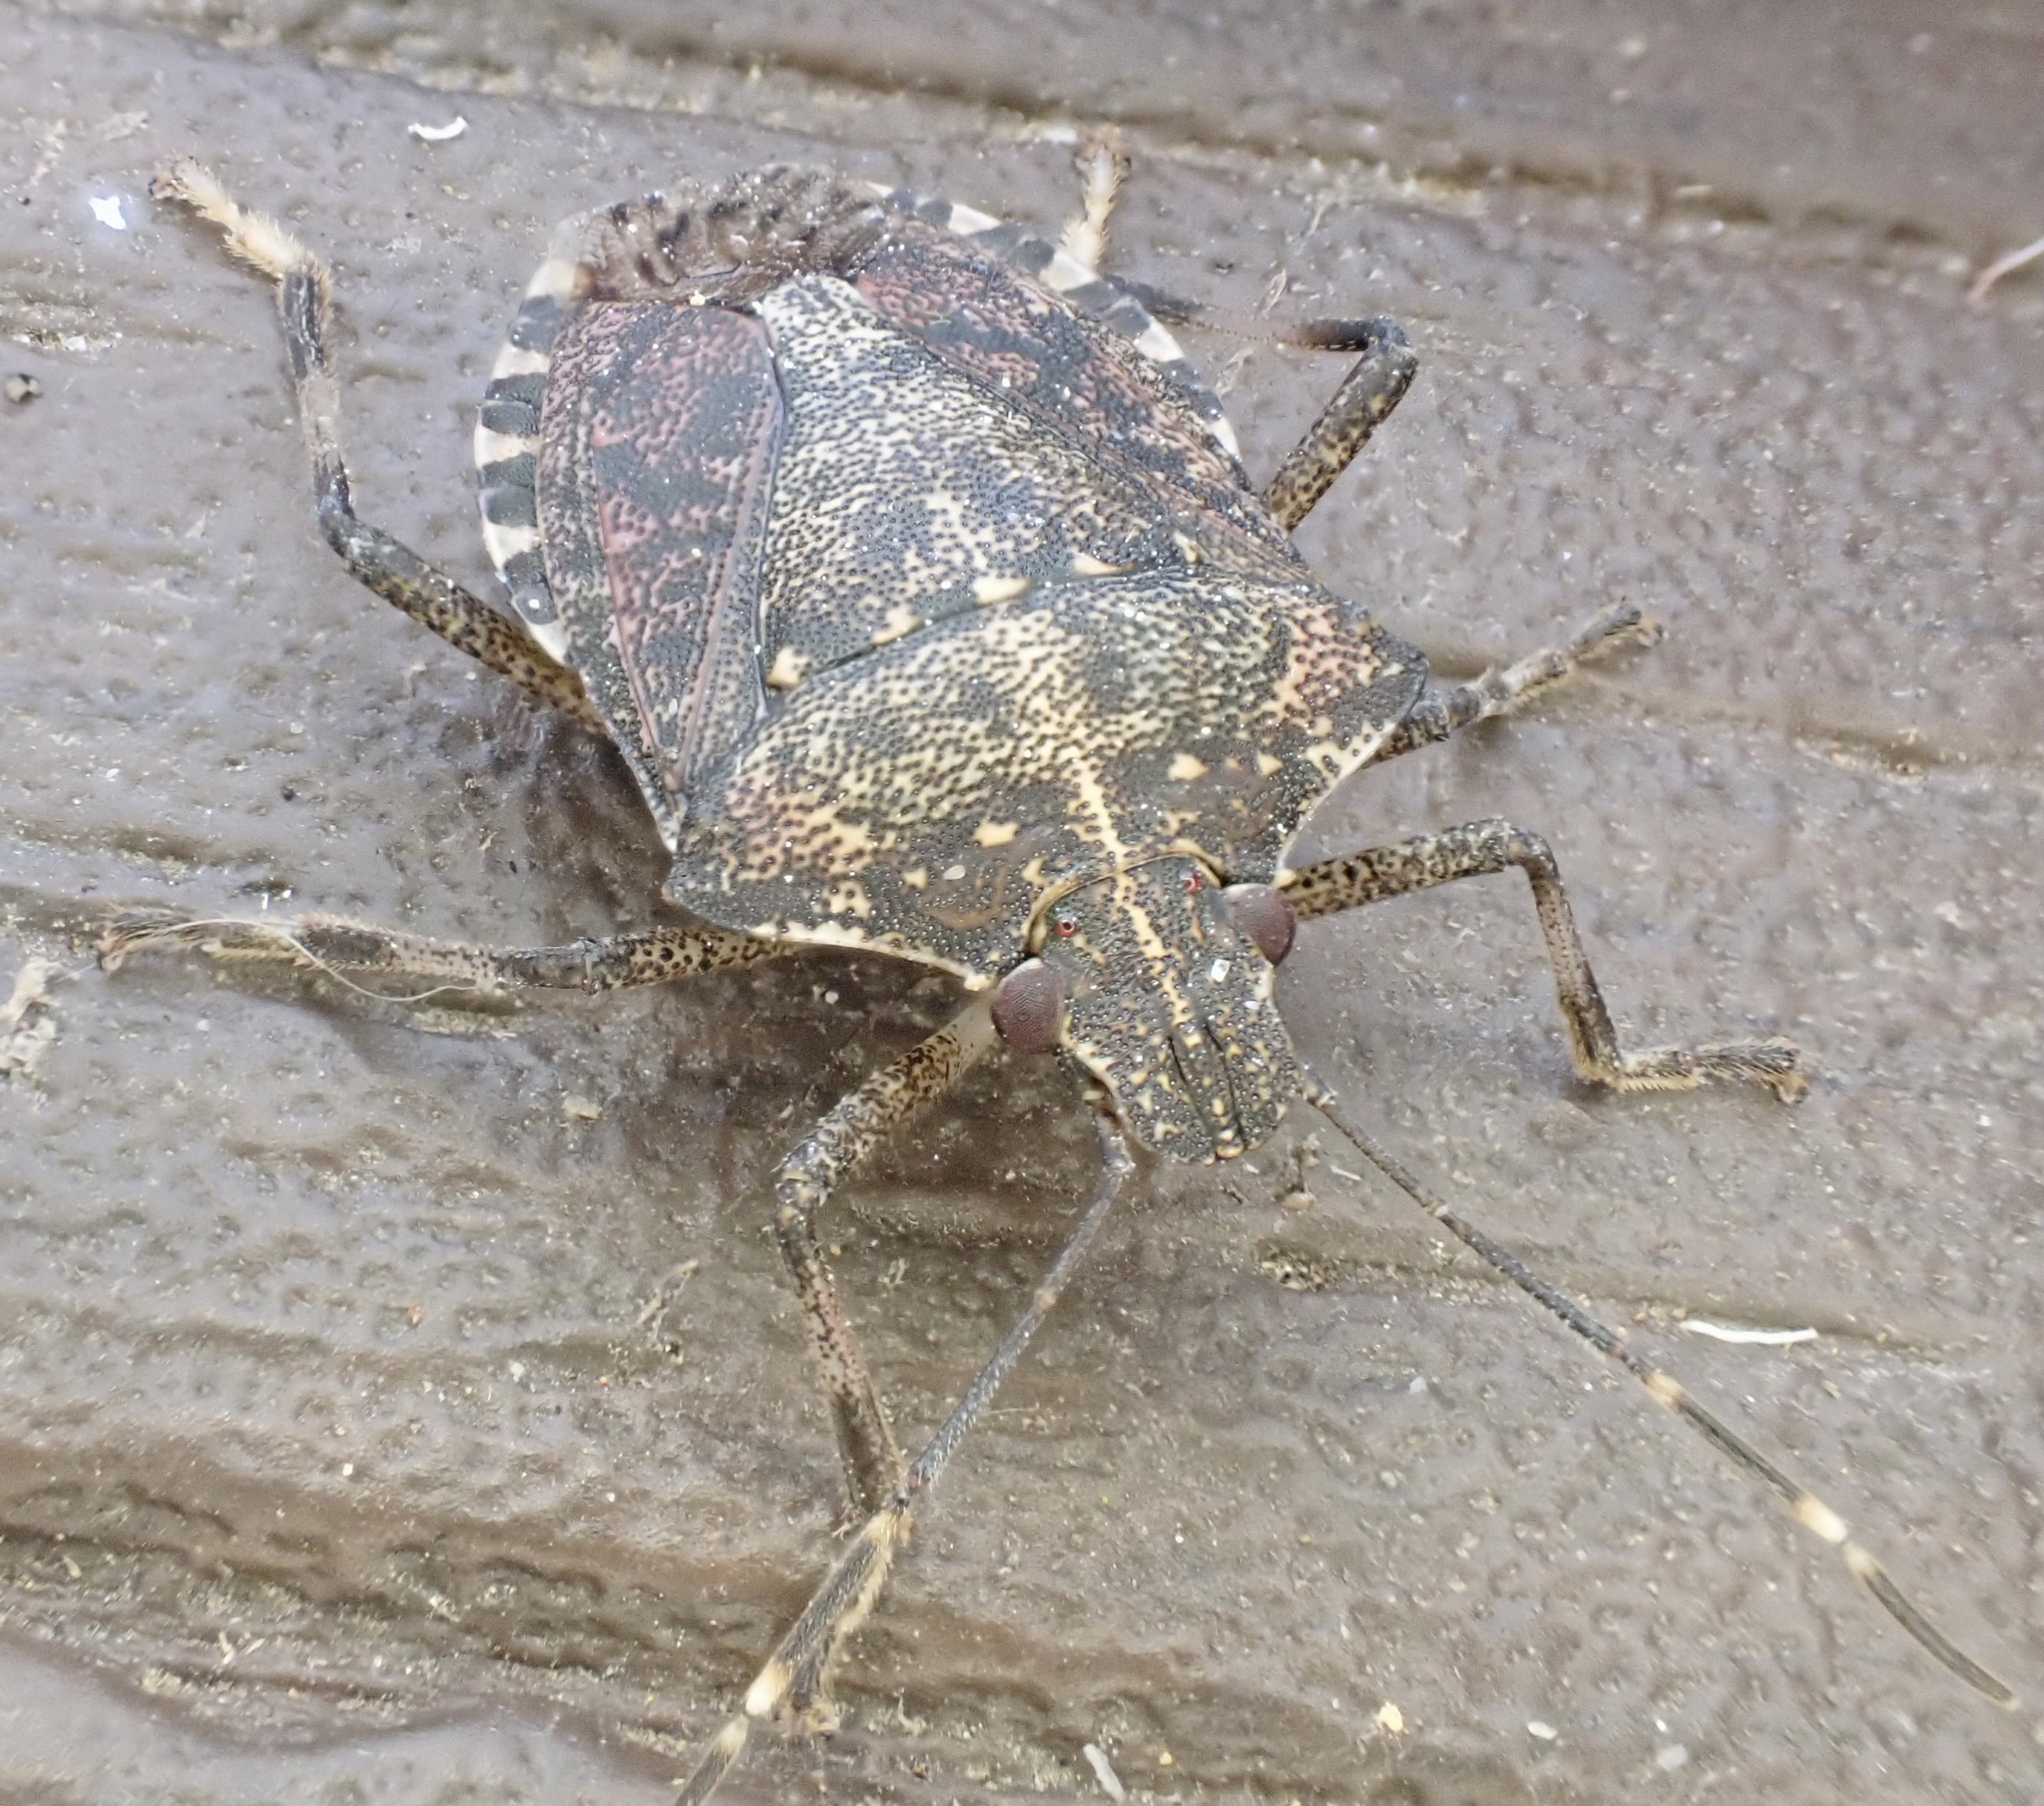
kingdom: Animalia
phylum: Arthropoda
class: Insecta
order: Hemiptera
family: Pentatomidae
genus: Halyomorpha
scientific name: Halyomorpha halys
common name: Brown marmorated stink bug
